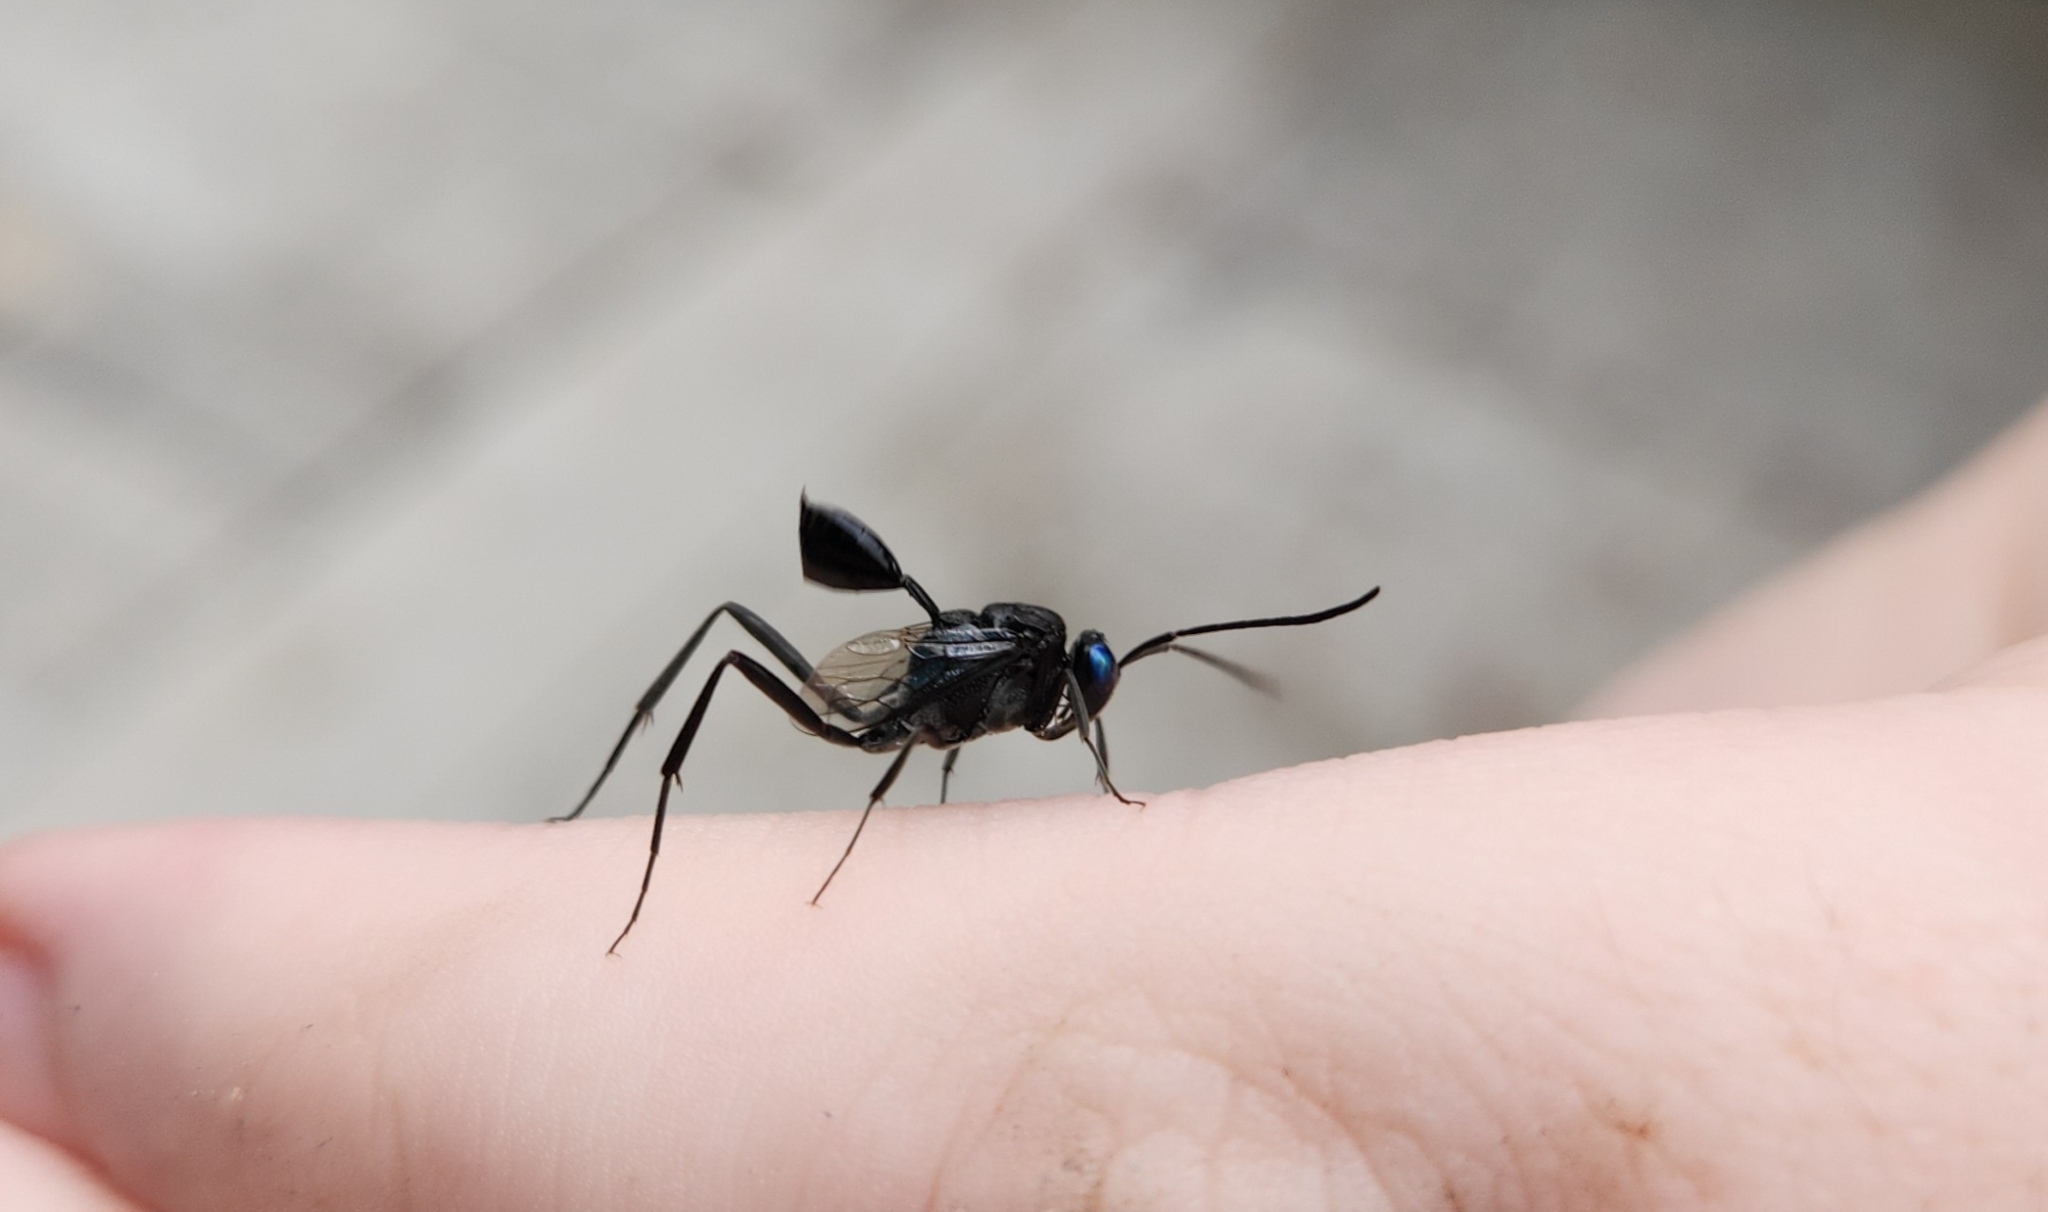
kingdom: Animalia
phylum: Arthropoda
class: Insecta
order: Hymenoptera
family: Evaniidae
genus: Evania
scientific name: Evania appendigaster
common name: Ensign wasp
